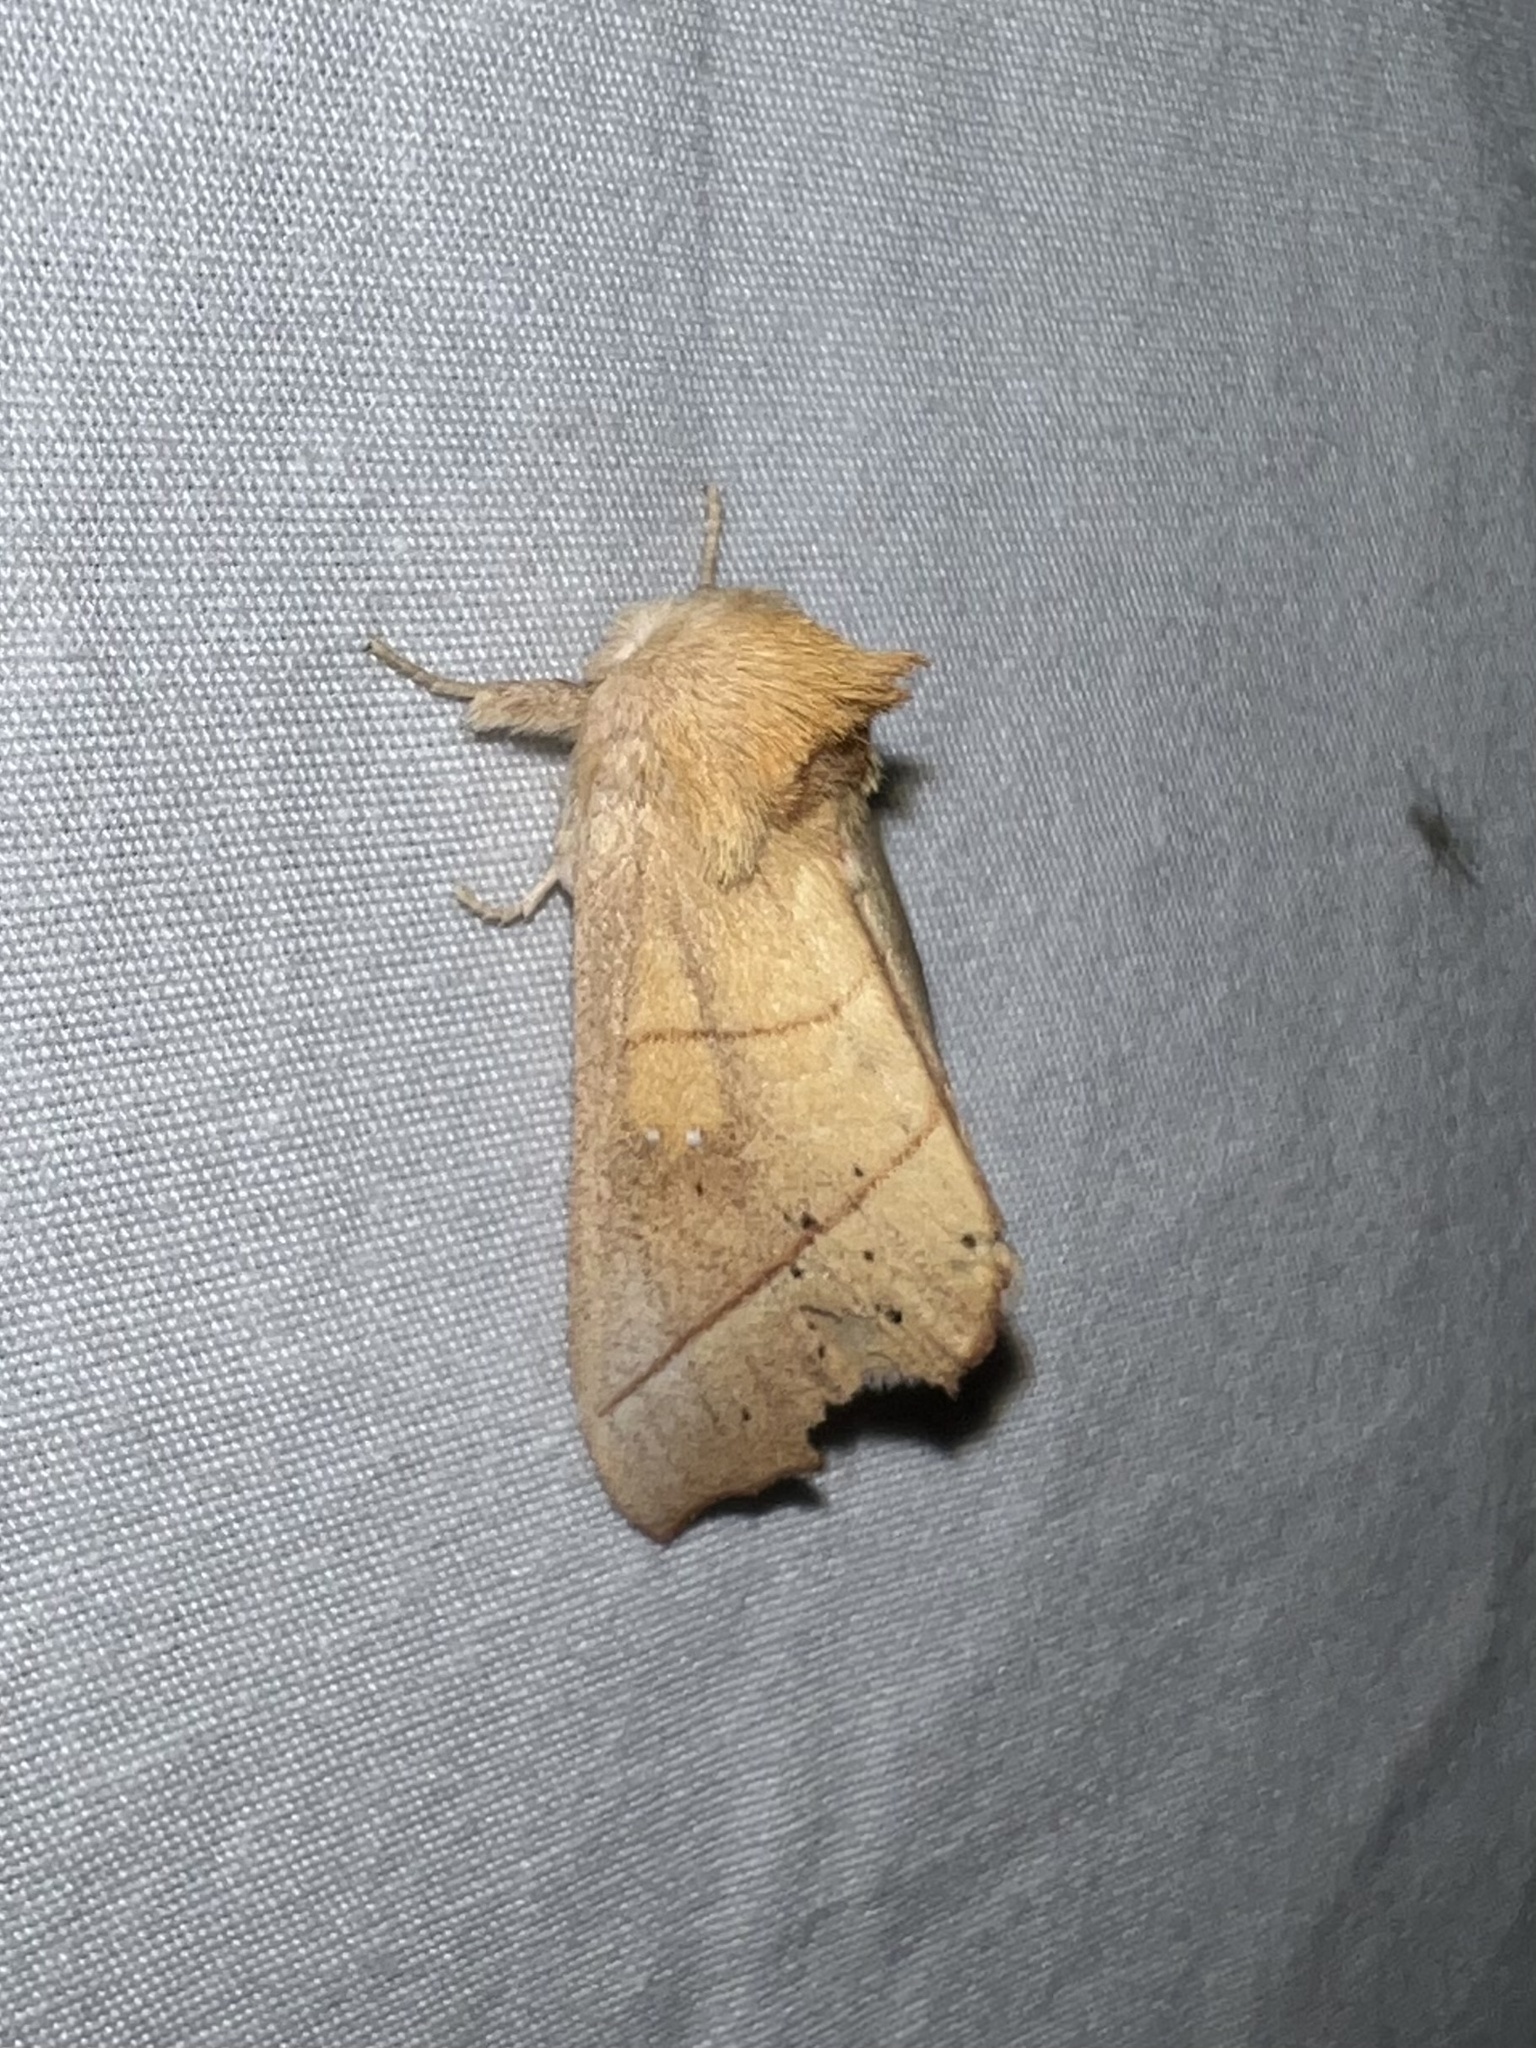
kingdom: Animalia
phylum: Arthropoda
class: Insecta
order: Lepidoptera
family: Notodontidae
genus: Nadata
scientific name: Nadata gibbosa
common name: White-dotted prominent
